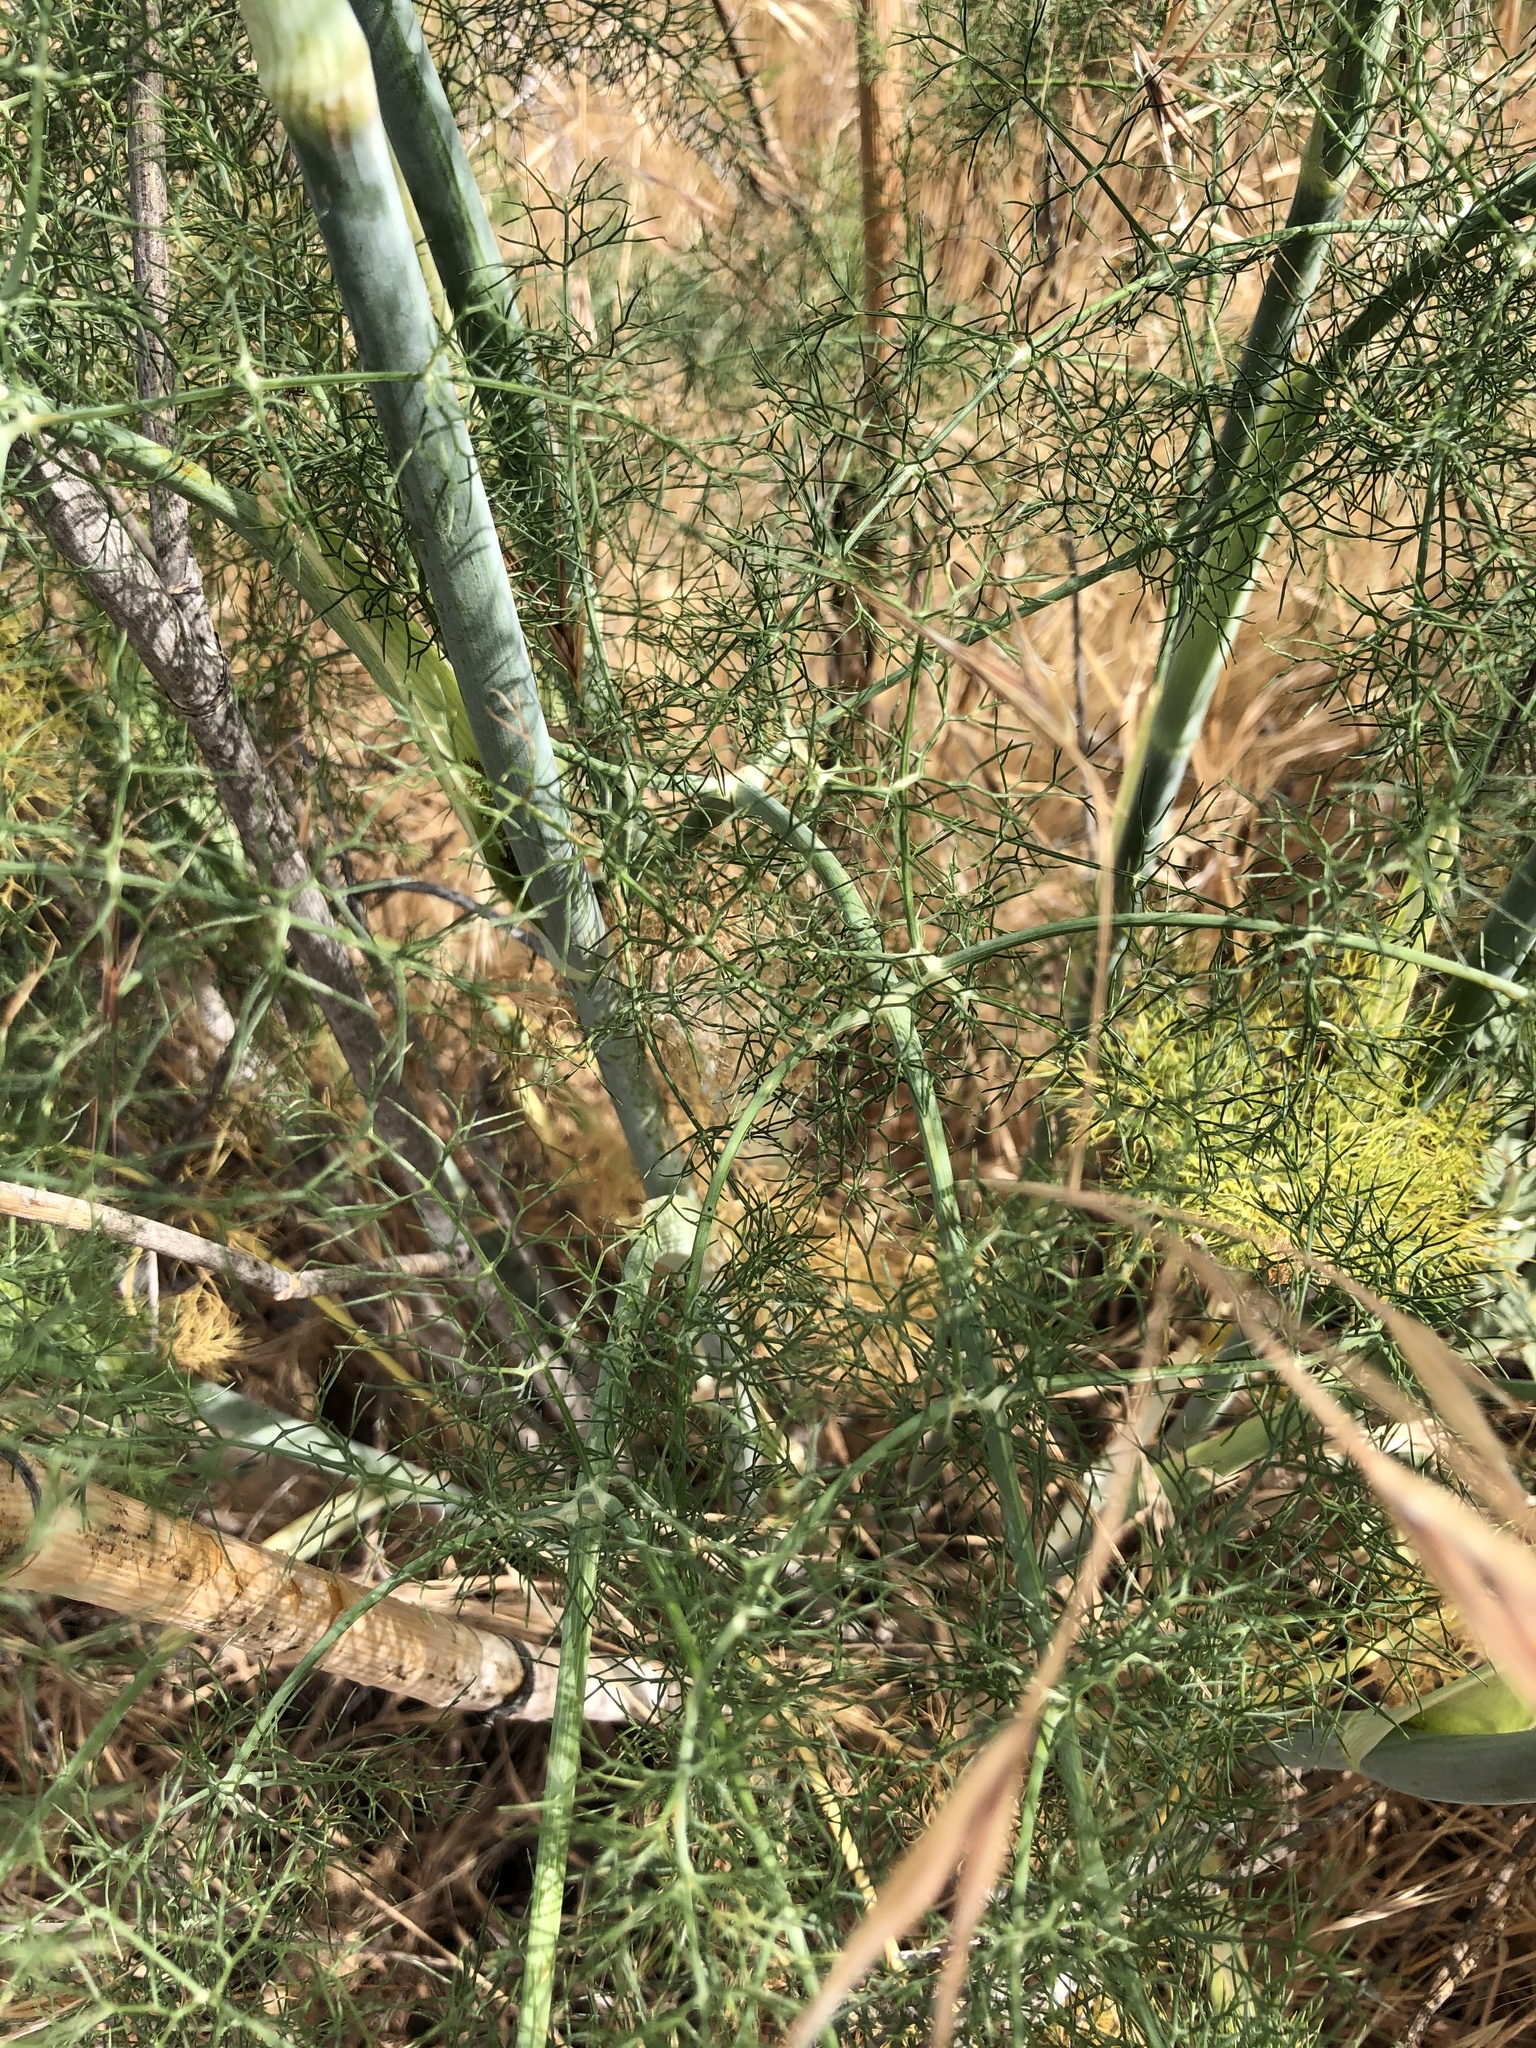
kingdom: Plantae
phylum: Tracheophyta
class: Magnoliopsida
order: Apiales
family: Apiaceae
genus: Foeniculum
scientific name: Foeniculum vulgare
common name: Fennel
